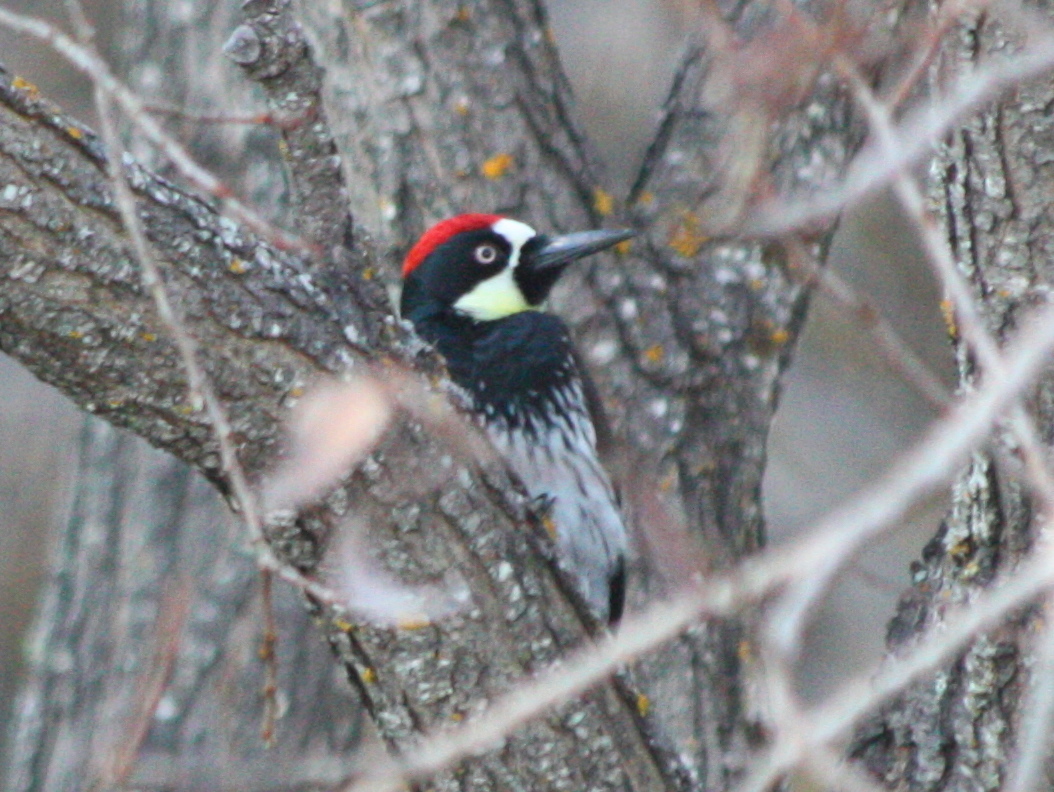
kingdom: Animalia
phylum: Chordata
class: Aves
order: Piciformes
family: Picidae
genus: Melanerpes
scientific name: Melanerpes formicivorus
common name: Acorn woodpecker
